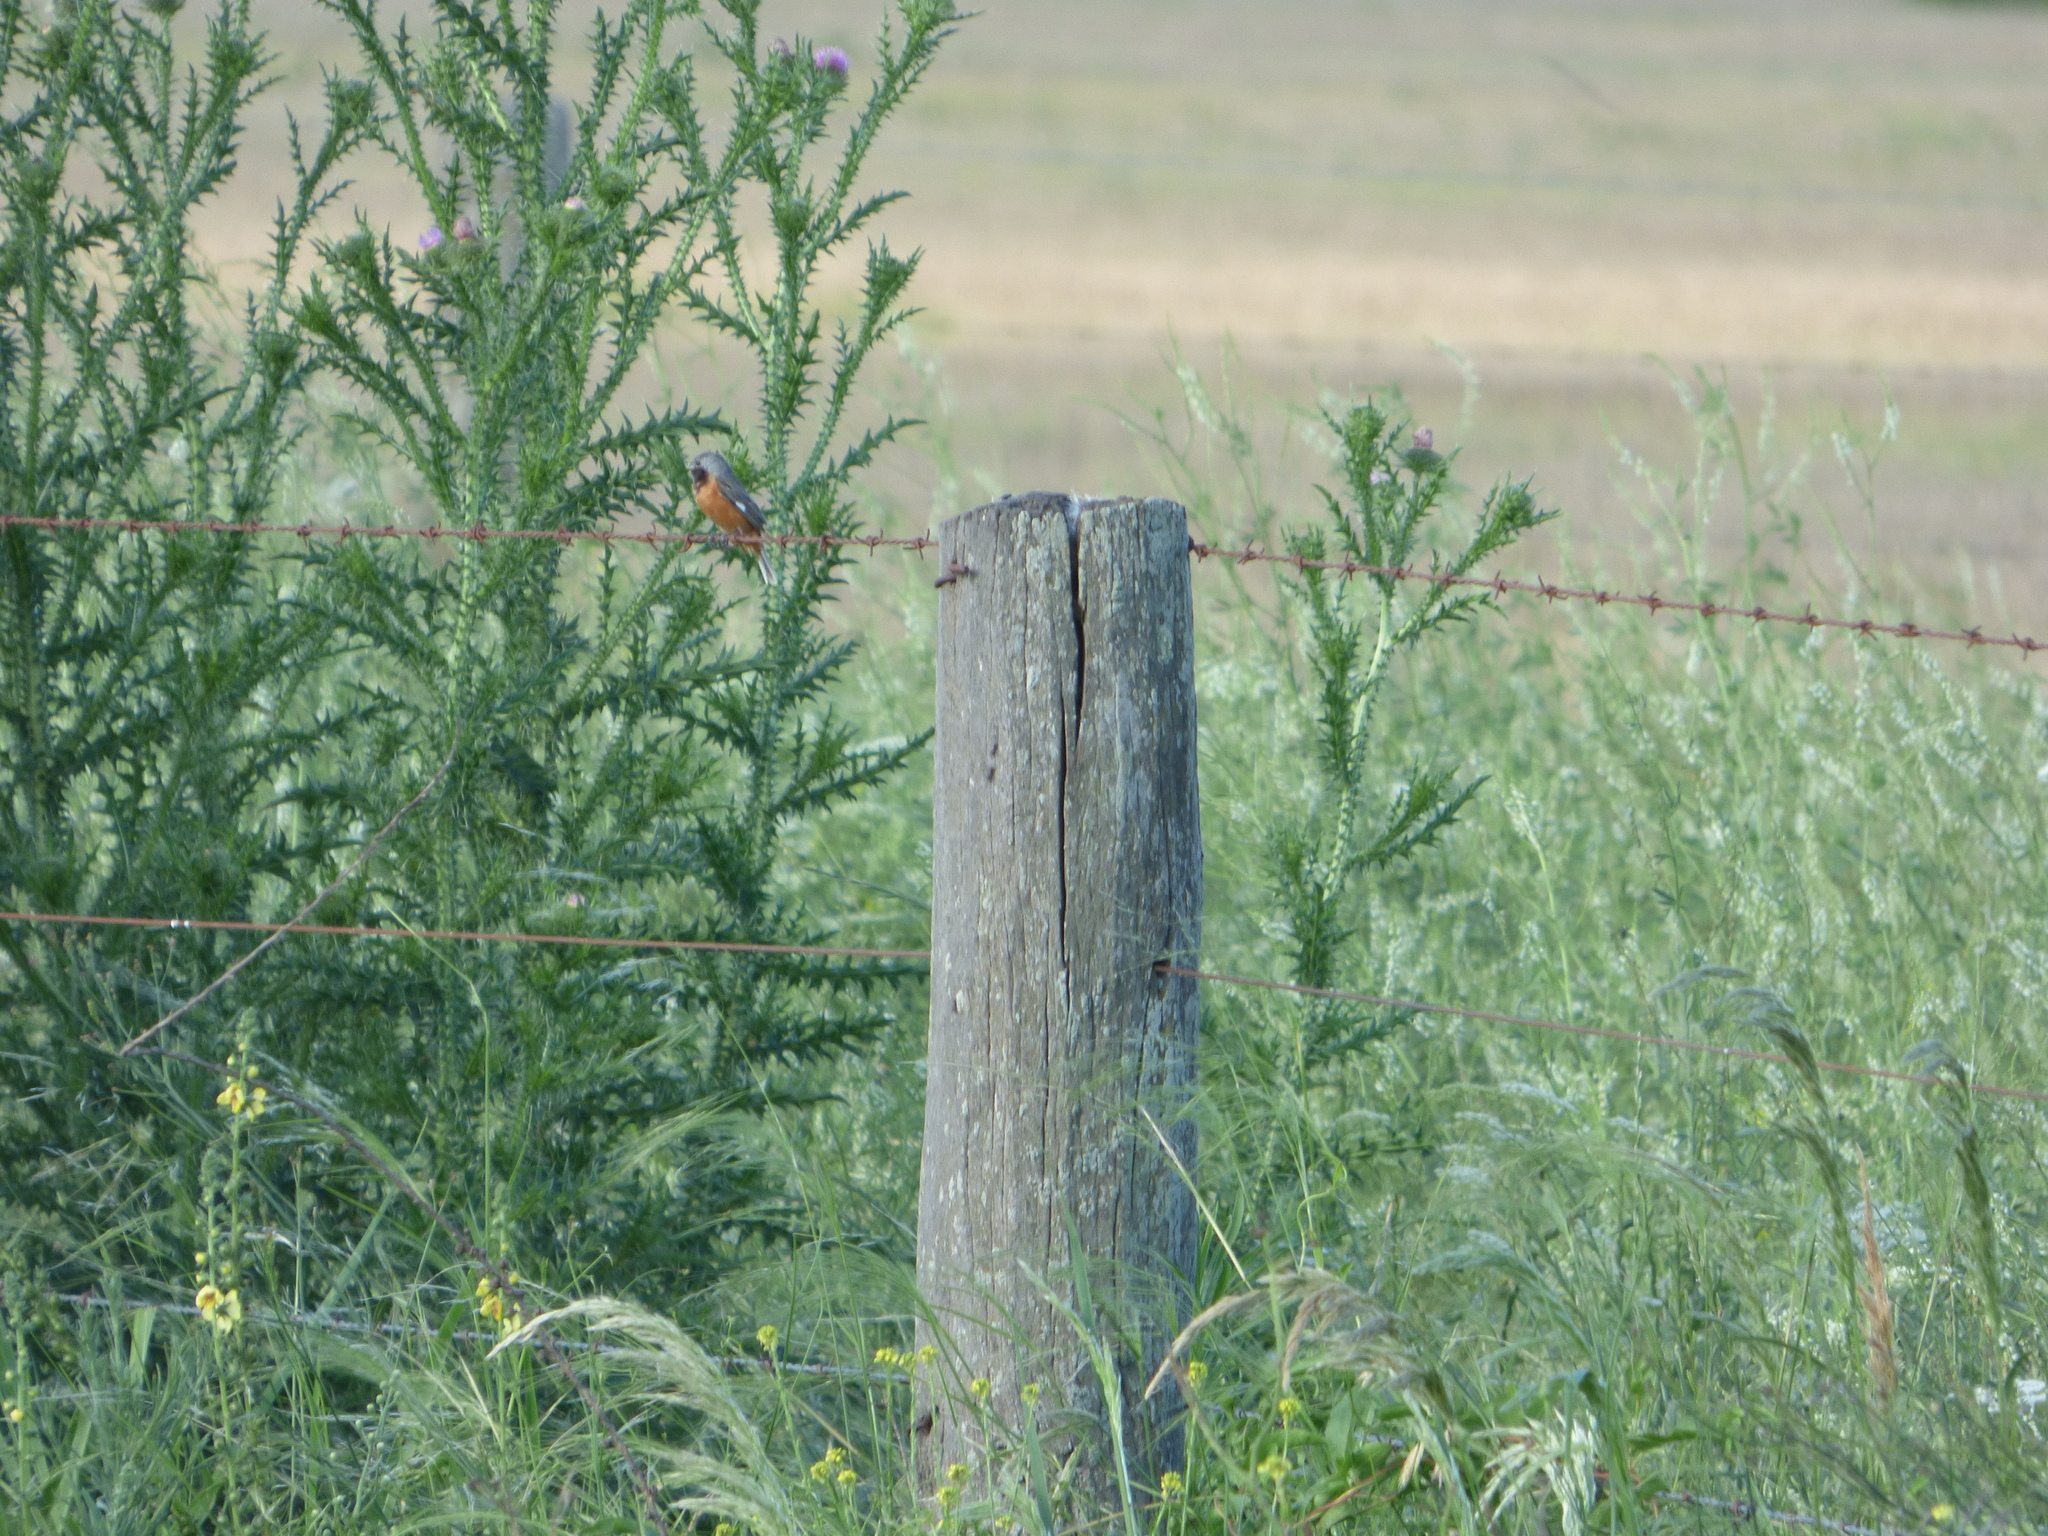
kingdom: Animalia
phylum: Chordata
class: Aves
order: Passeriformes
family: Thraupidae
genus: Sporophila
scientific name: Sporophila ruficollis
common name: Dark-throated seedeater
